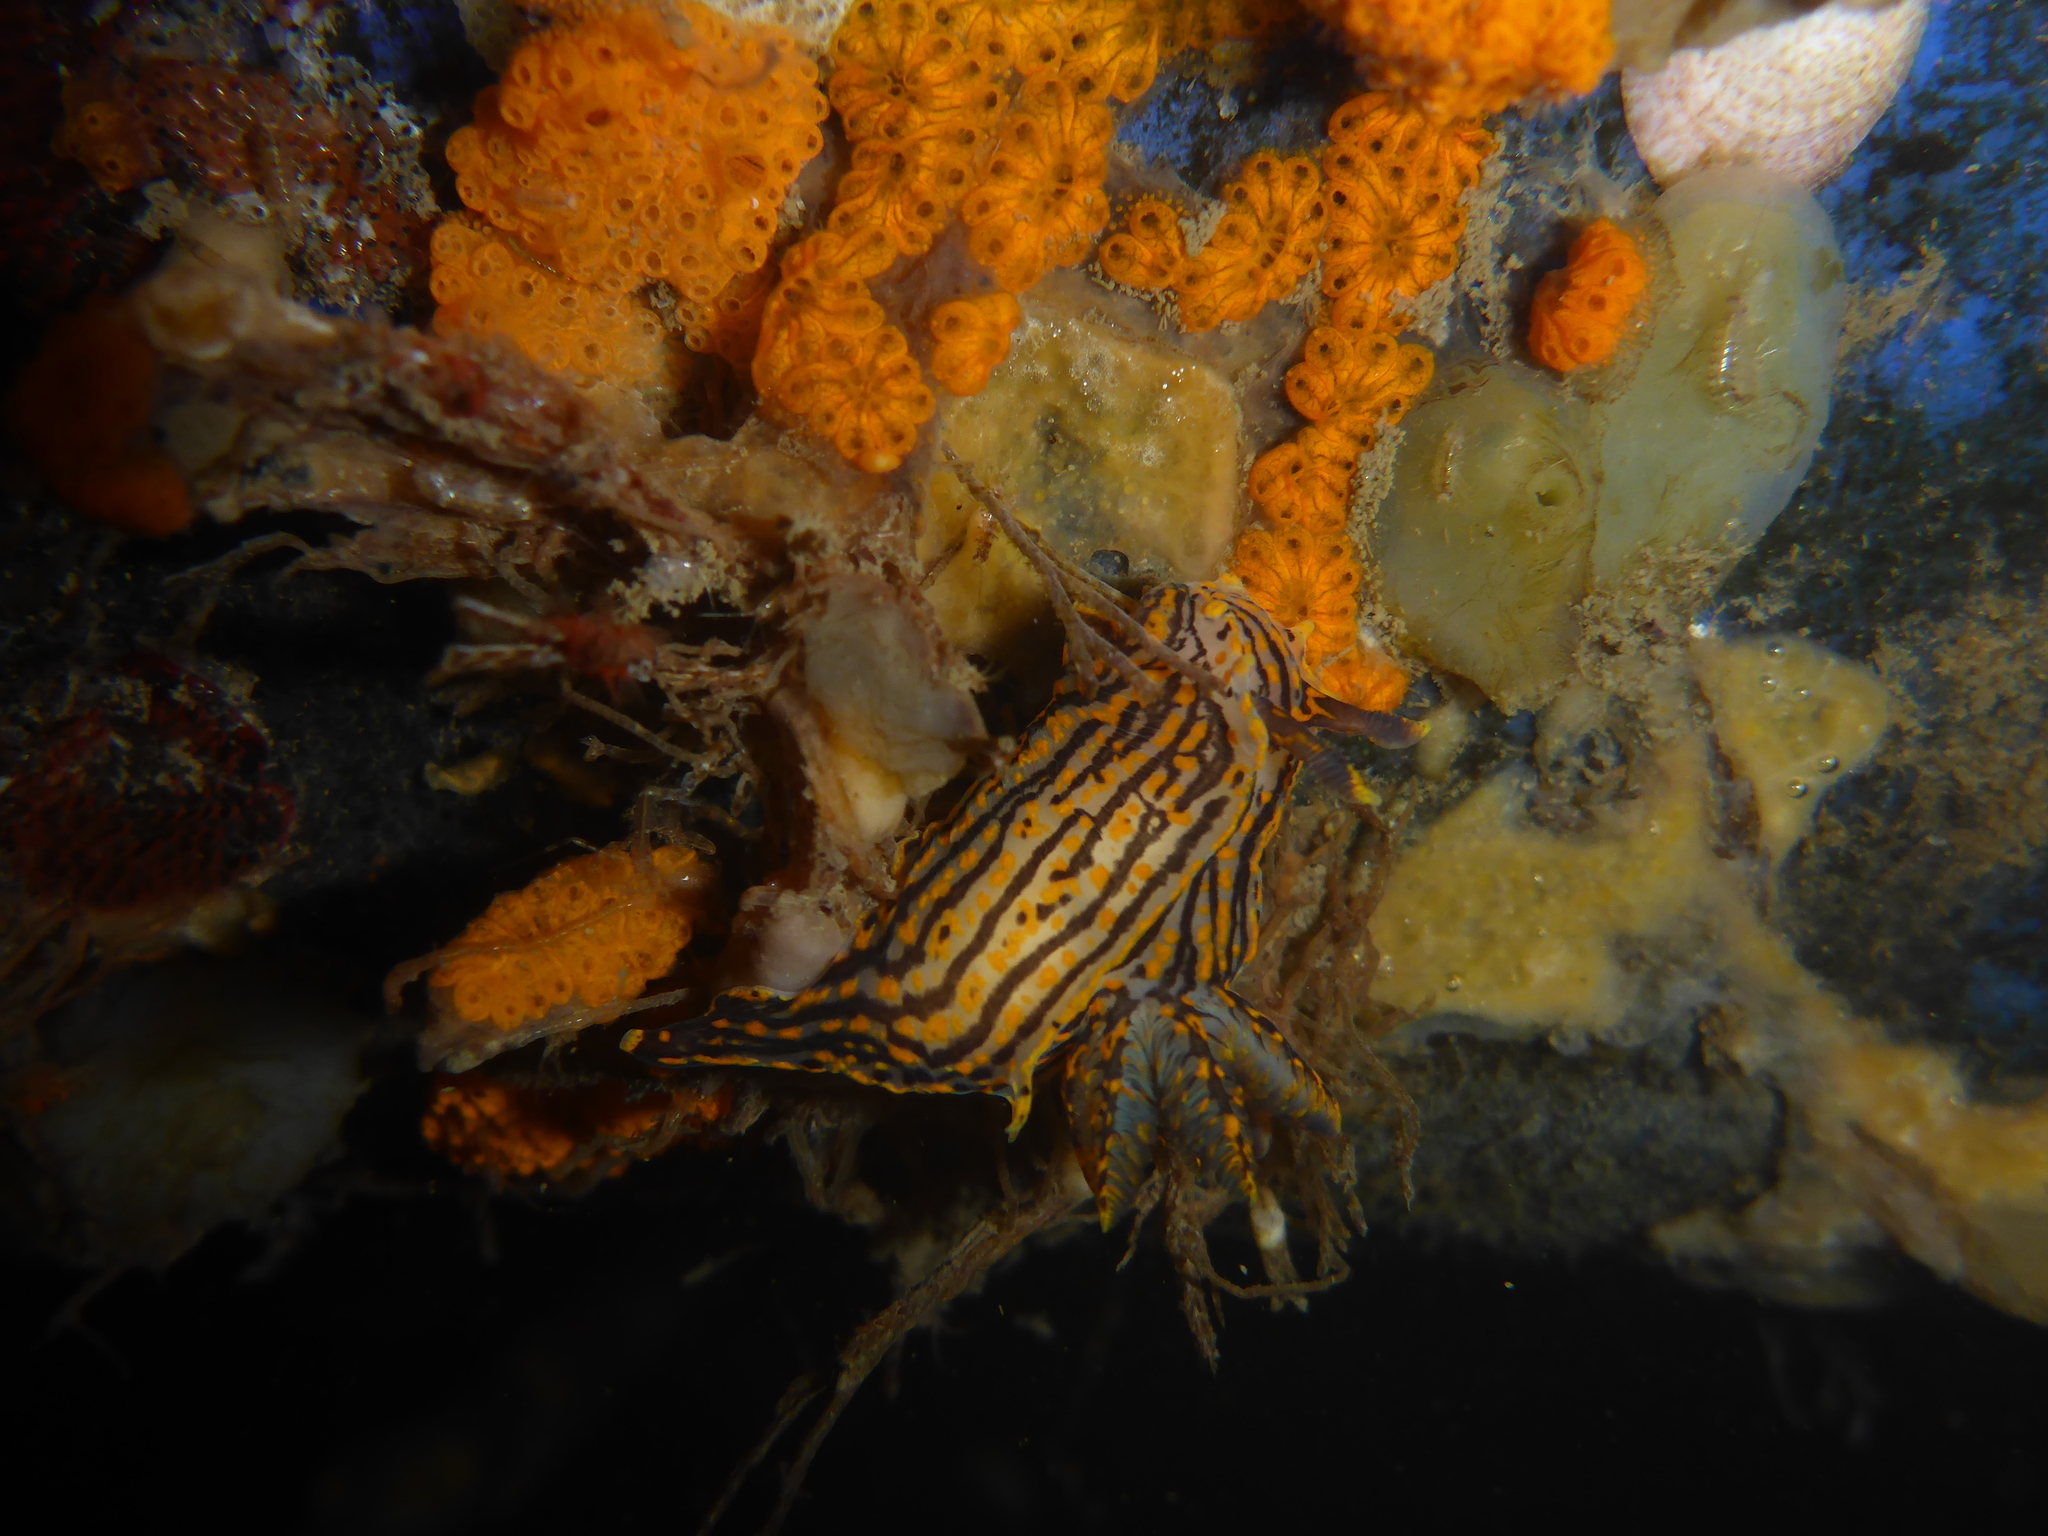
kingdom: Animalia
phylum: Mollusca
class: Gastropoda
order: Nudibranchia
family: Polyceridae
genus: Polycera
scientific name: Polycera atra
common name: Orange-spike polycera
